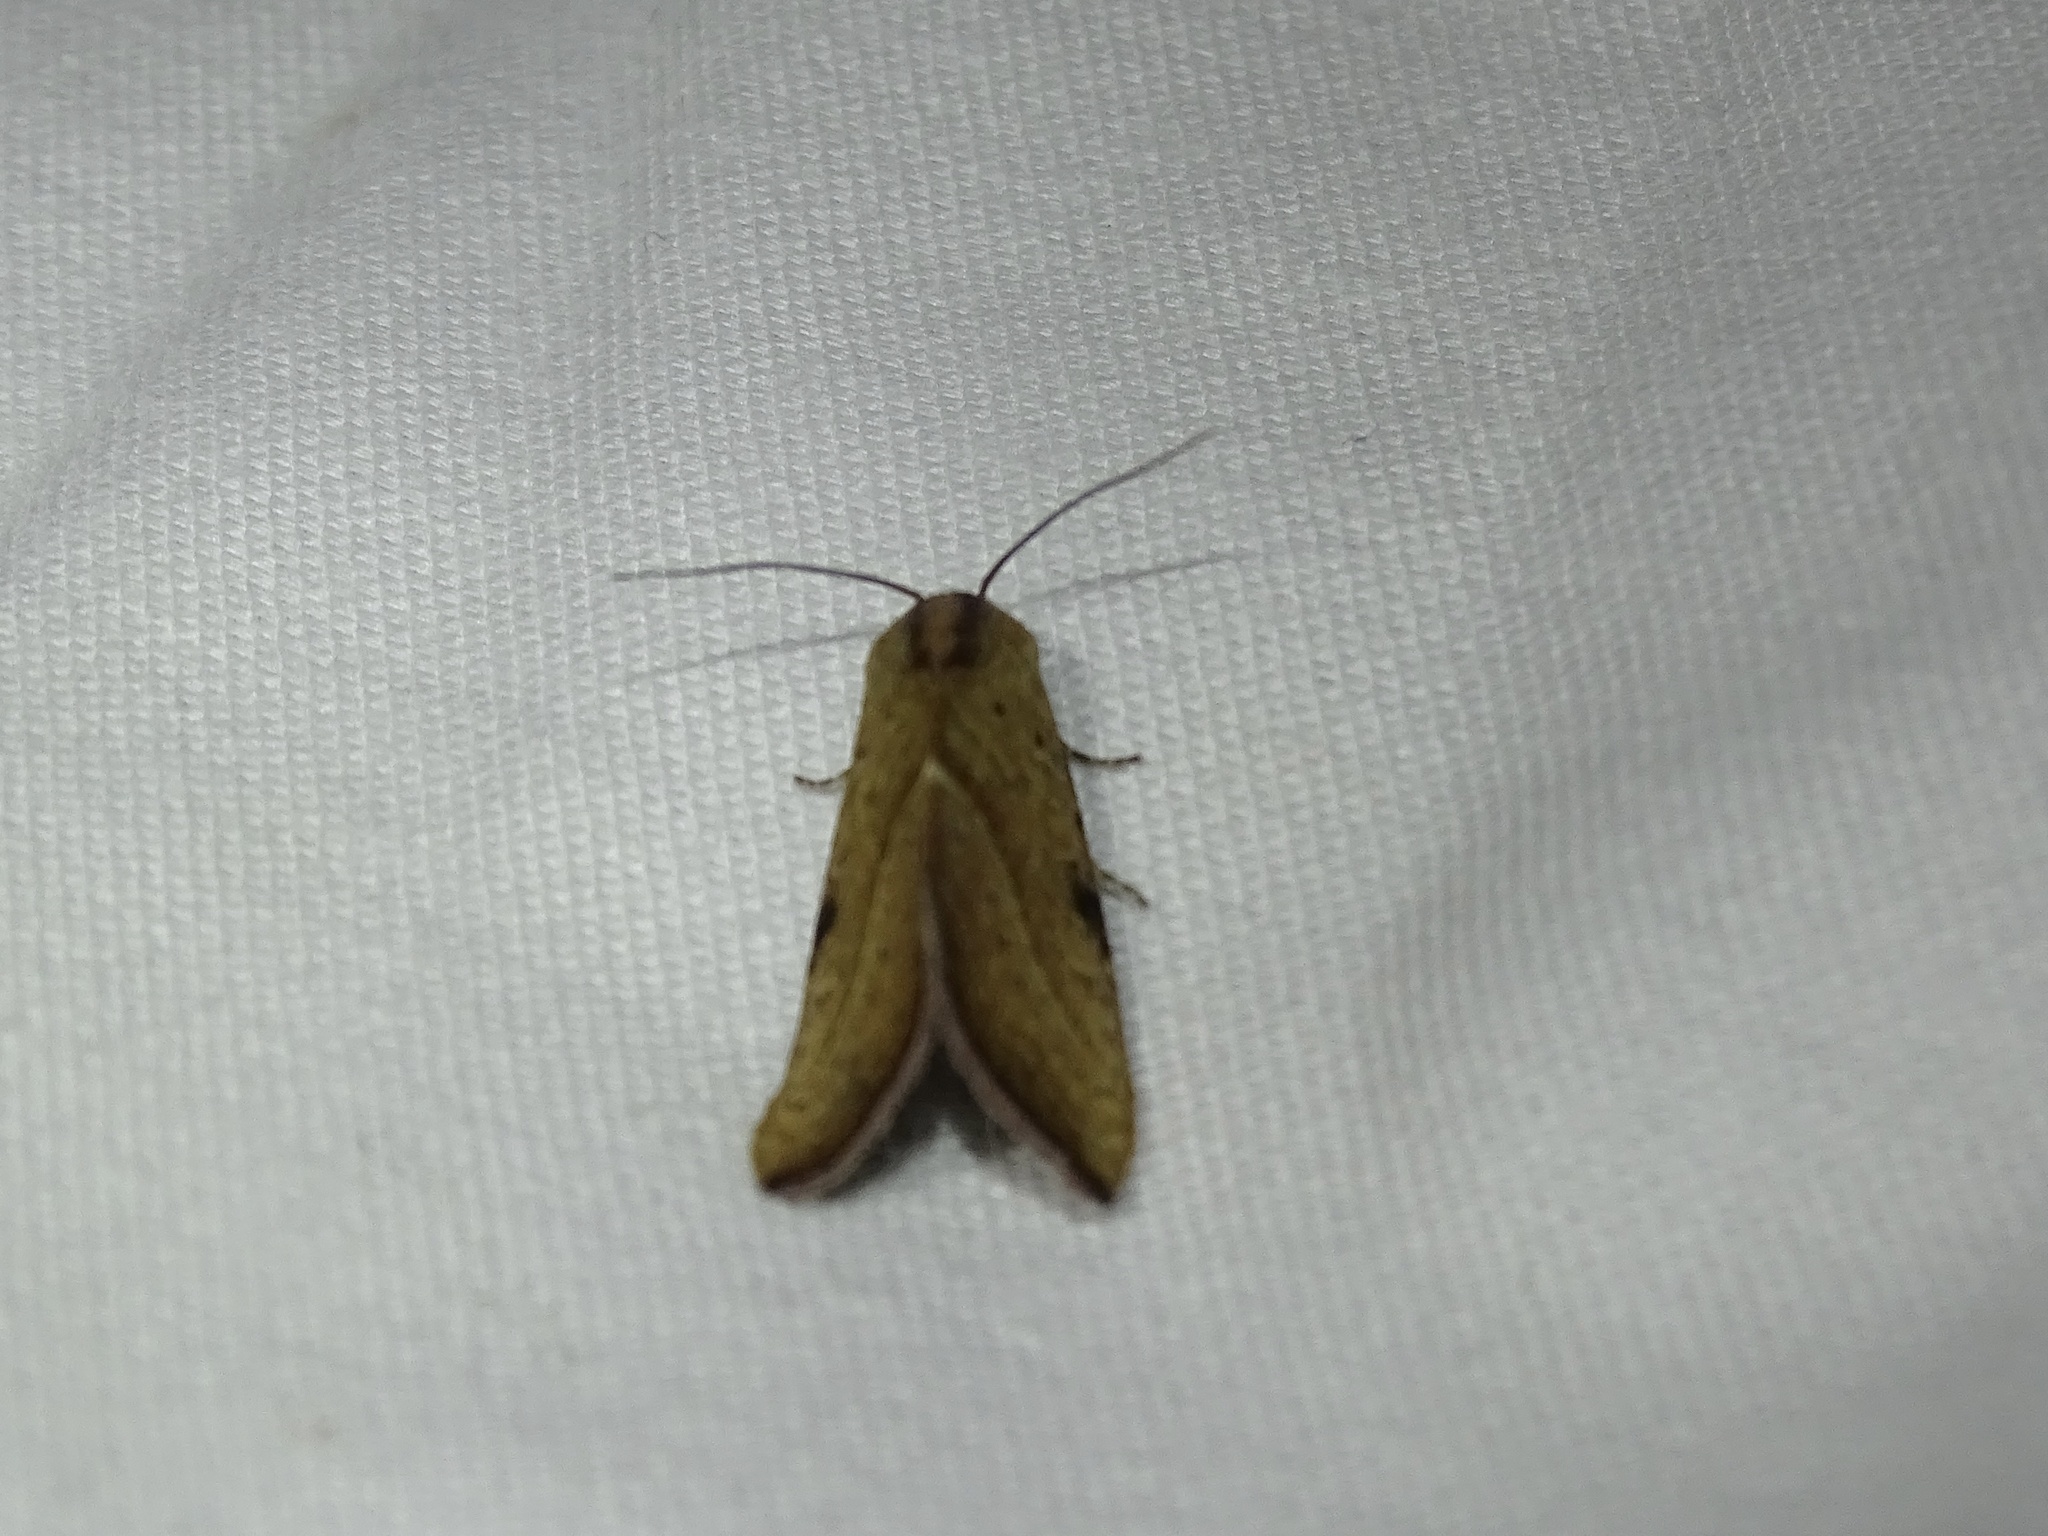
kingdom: Animalia
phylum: Arthropoda
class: Insecta
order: Lepidoptera
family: Noctuidae
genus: Galgula
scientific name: Galgula partita
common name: Wedgeling
